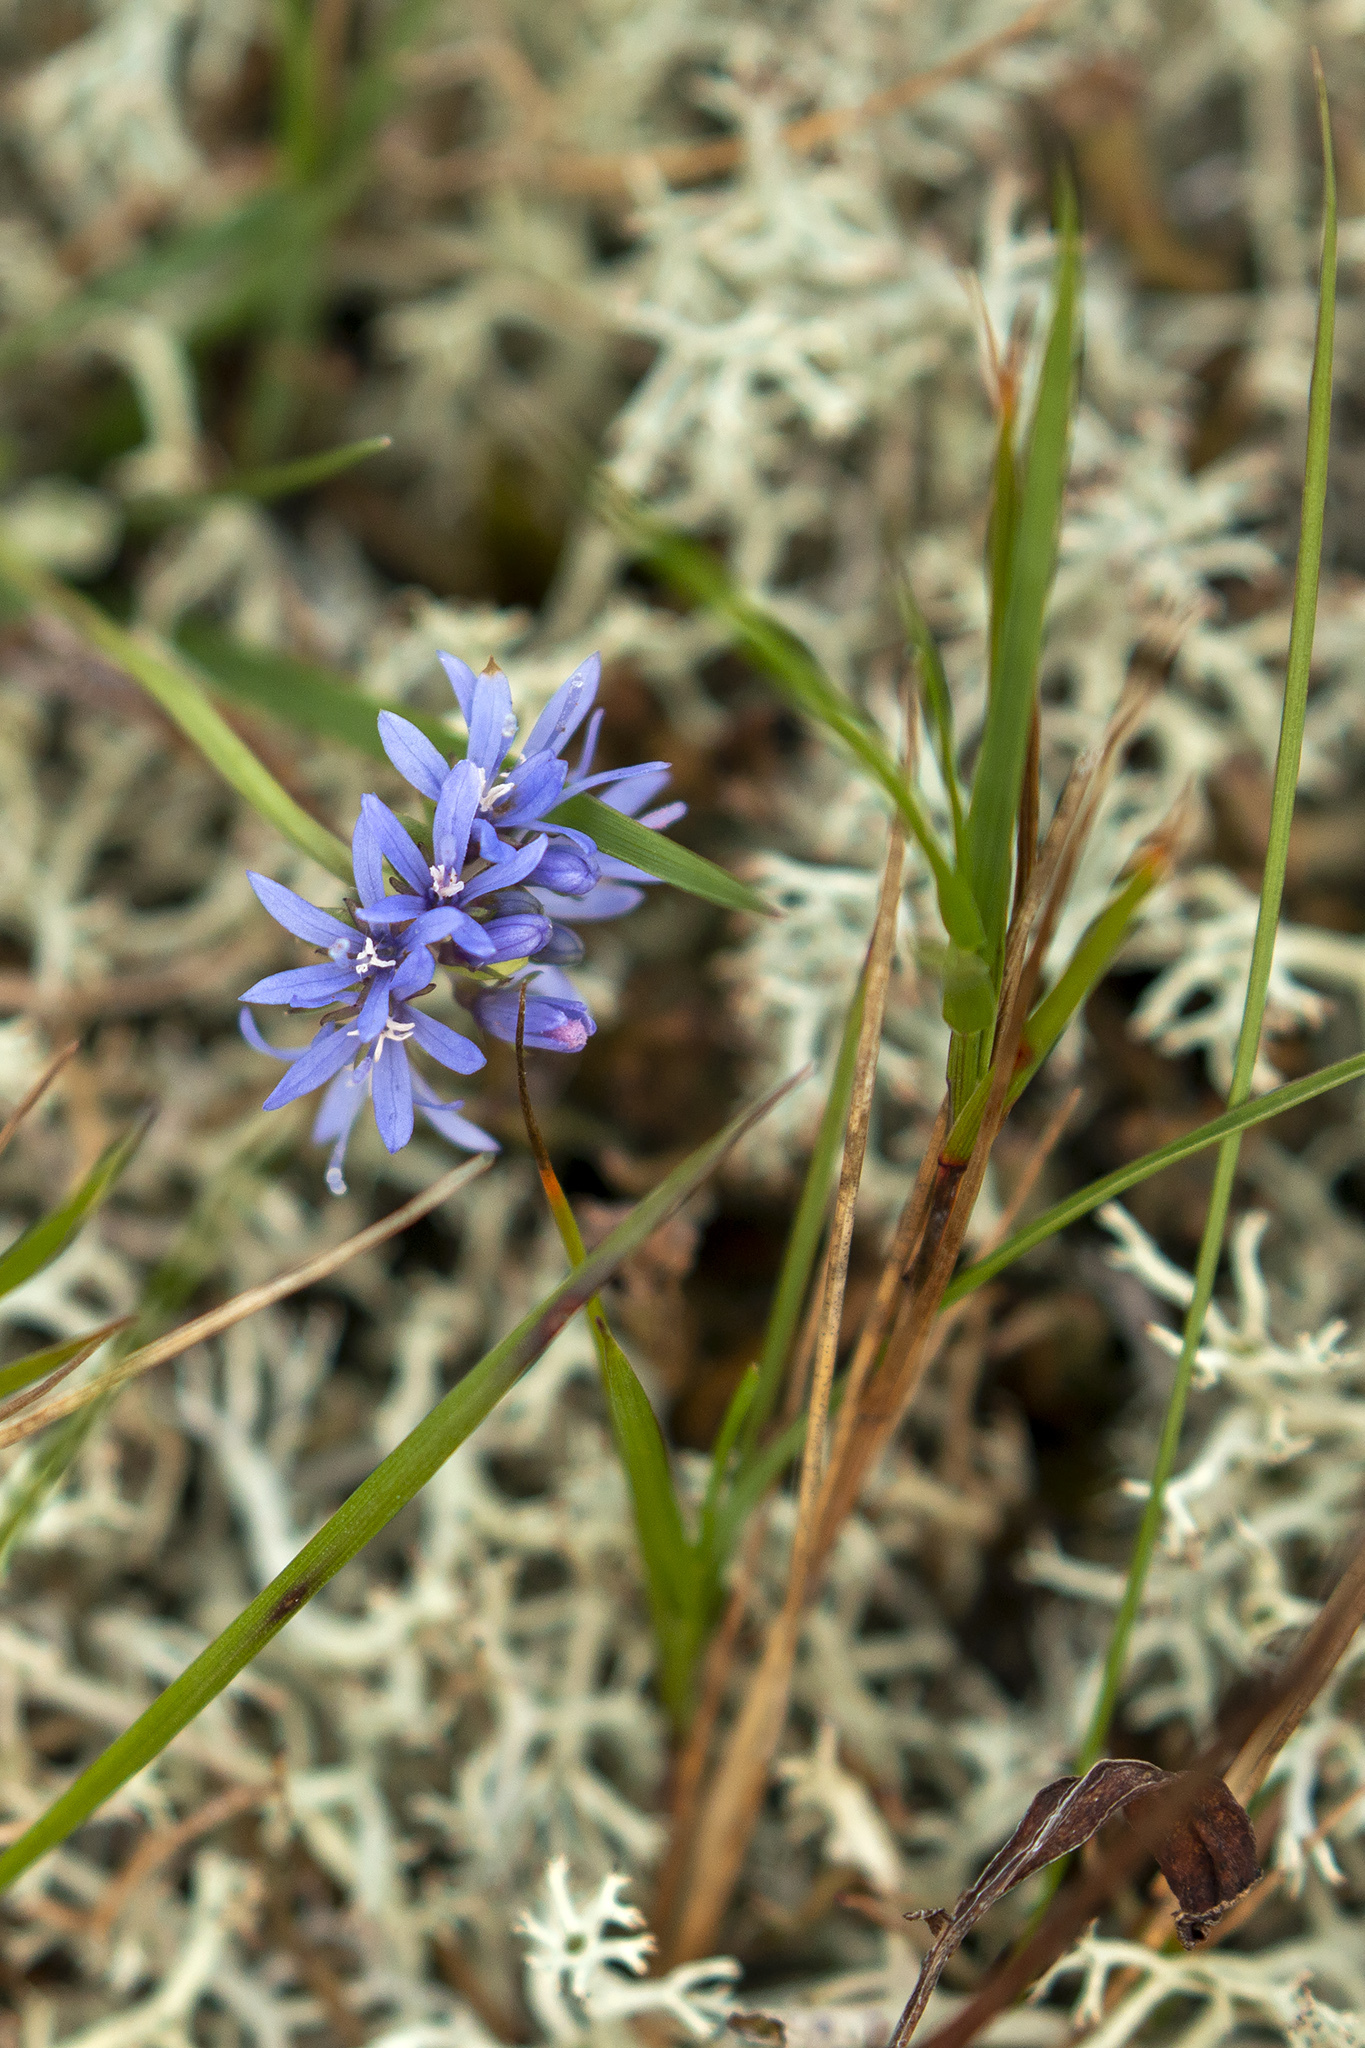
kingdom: Plantae
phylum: Tracheophyta
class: Magnoliopsida
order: Asterales
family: Campanulaceae
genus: Jasione
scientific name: Jasione montana
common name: Sheep's-bit
